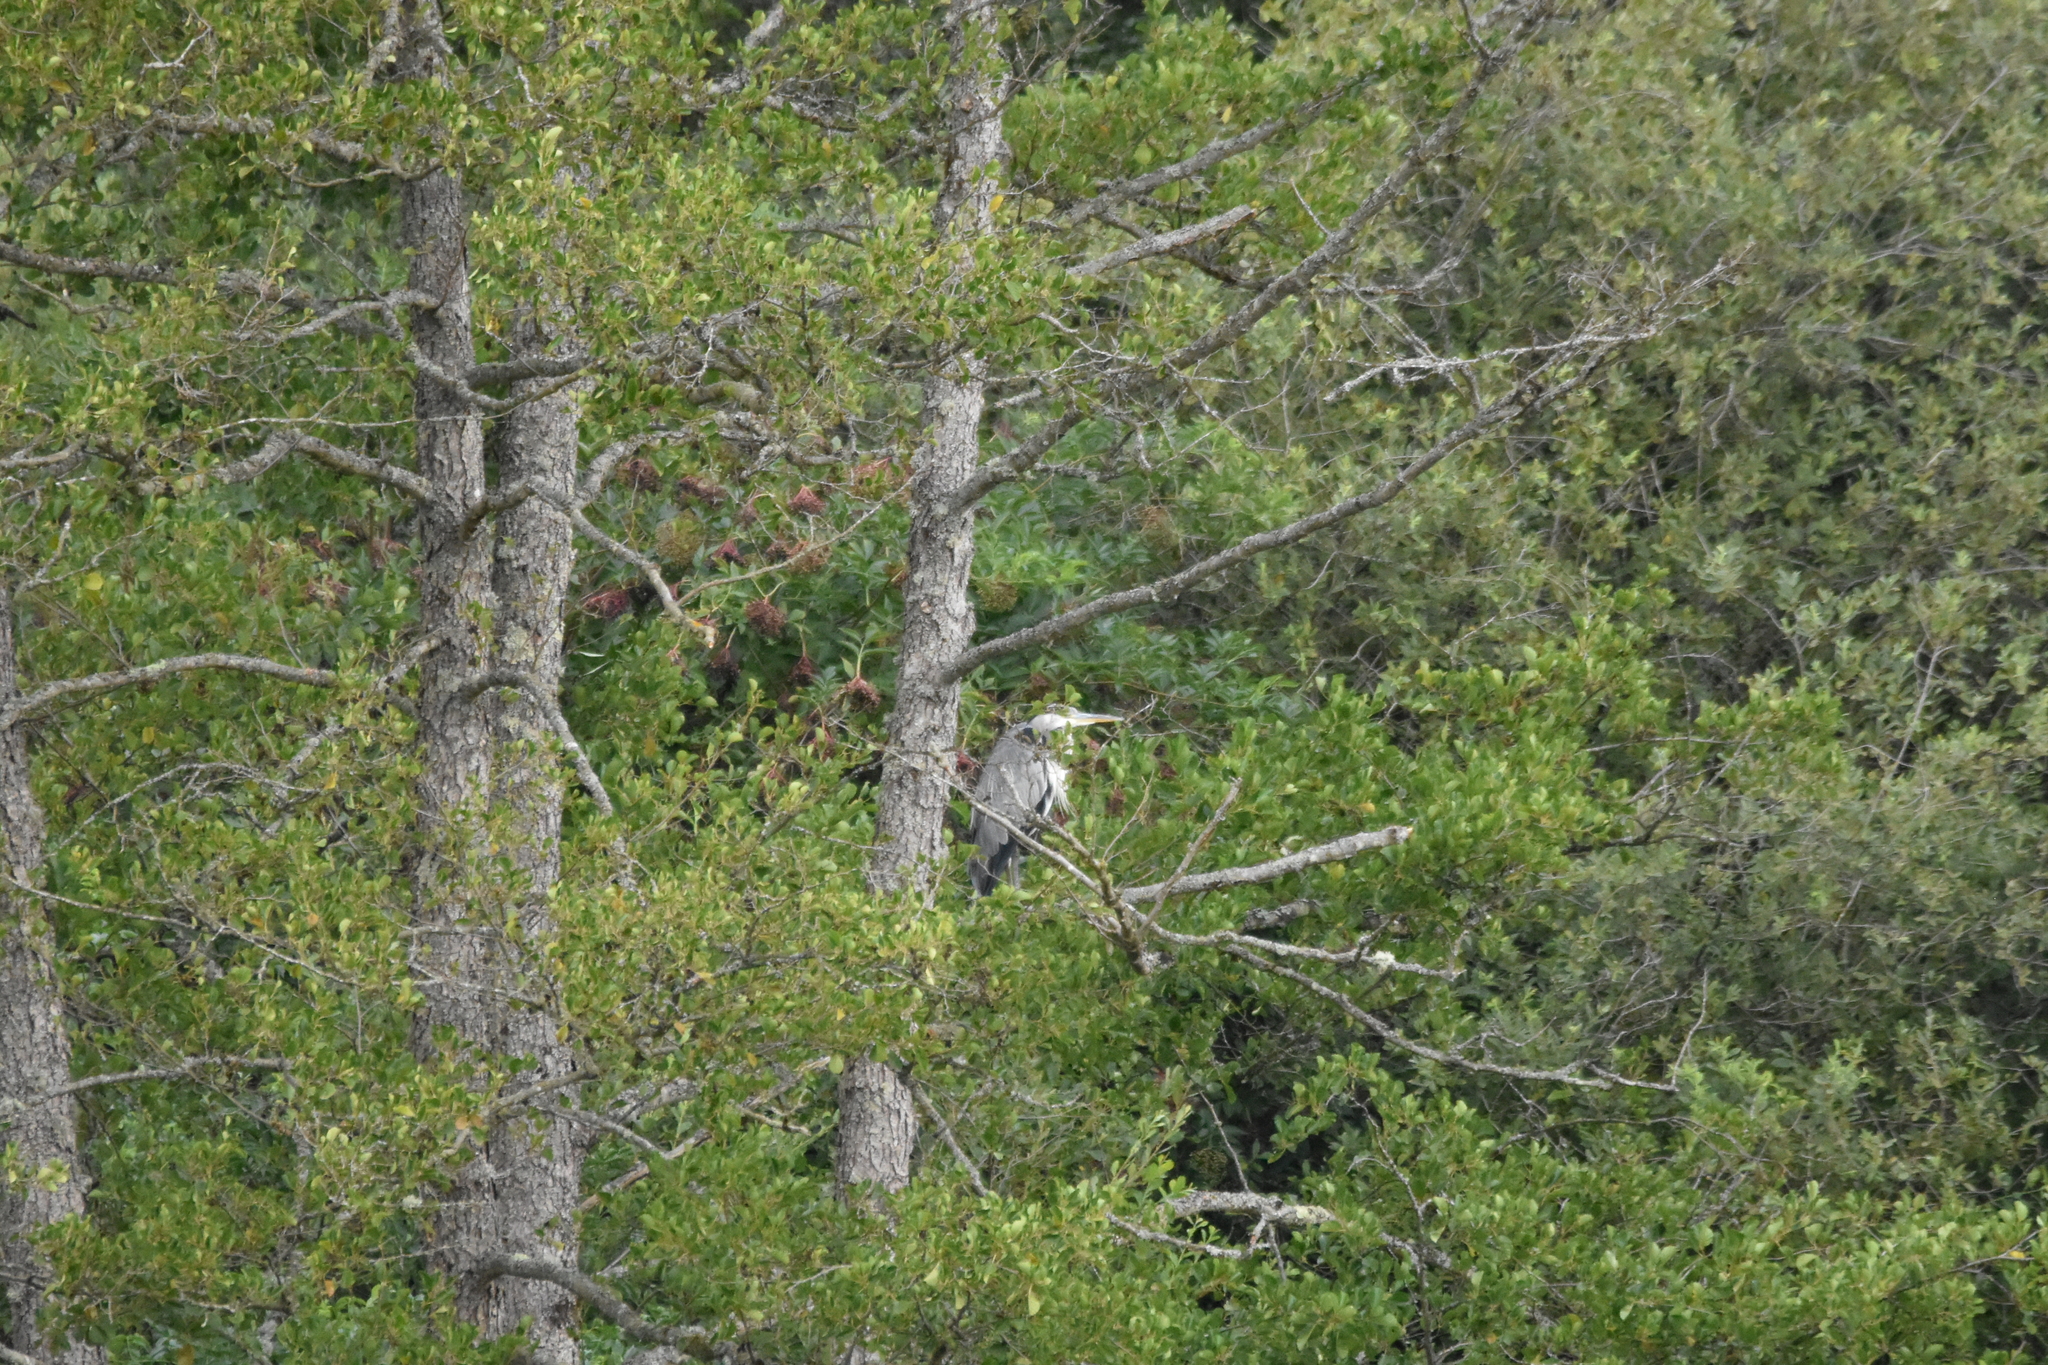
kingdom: Animalia
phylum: Chordata
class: Aves
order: Pelecaniformes
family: Ardeidae
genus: Ardea
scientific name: Ardea cinerea
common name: Grey heron
